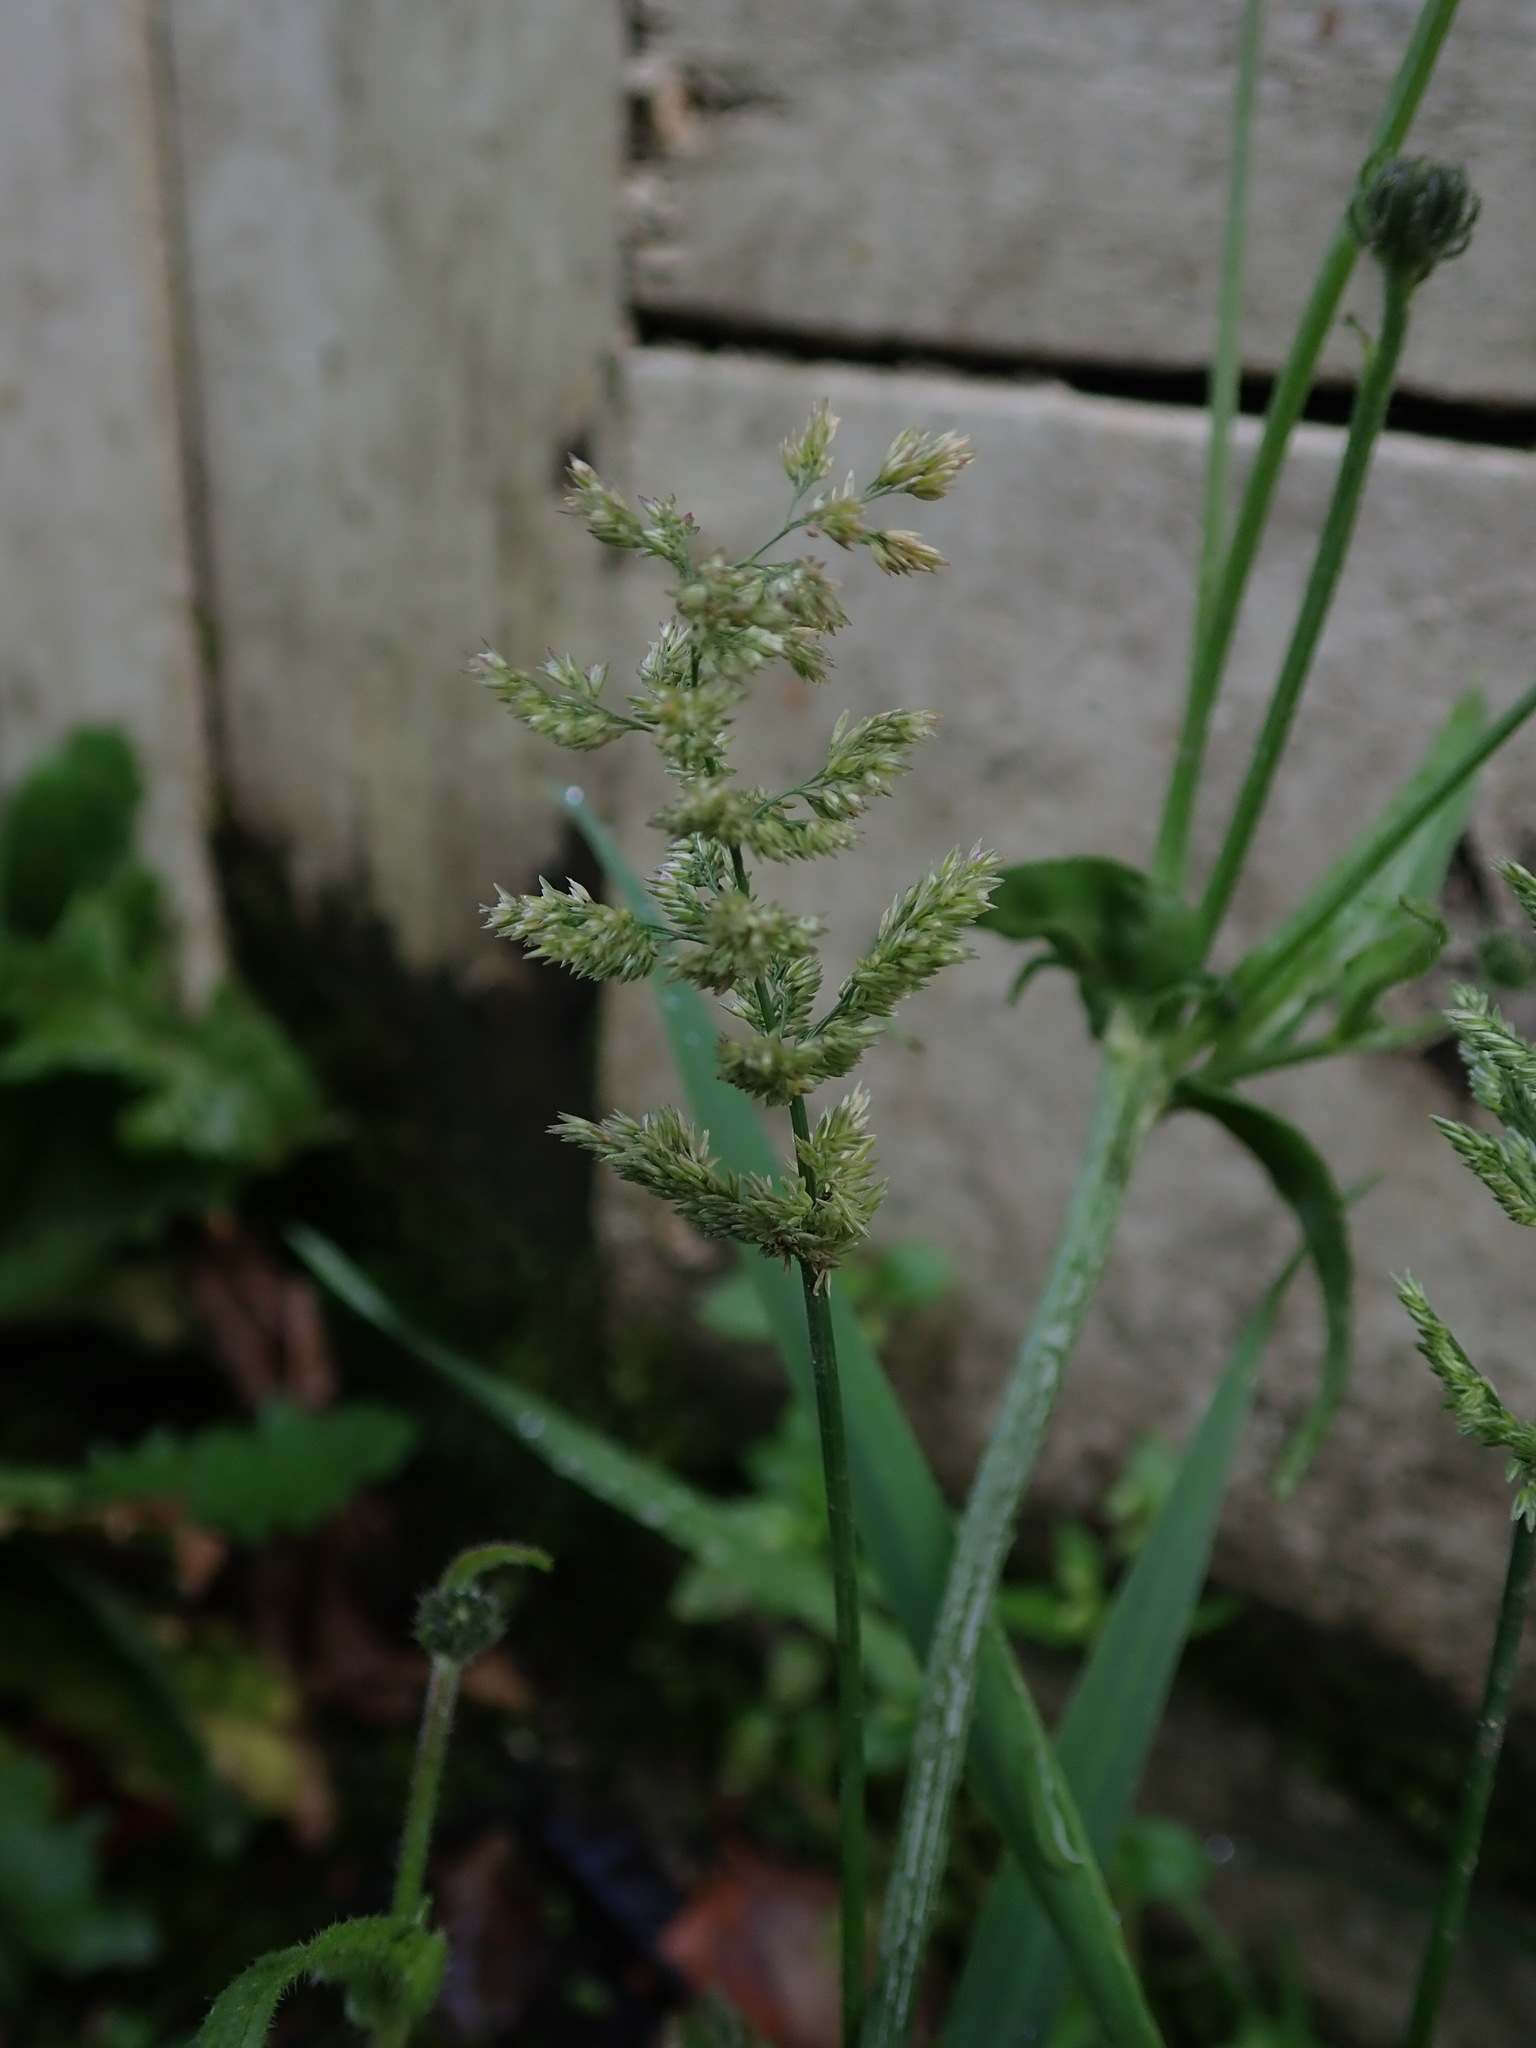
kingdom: Plantae
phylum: Tracheophyta
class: Liliopsida
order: Poales
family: Poaceae
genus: Polypogon
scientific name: Polypogon viridis
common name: Water bent
